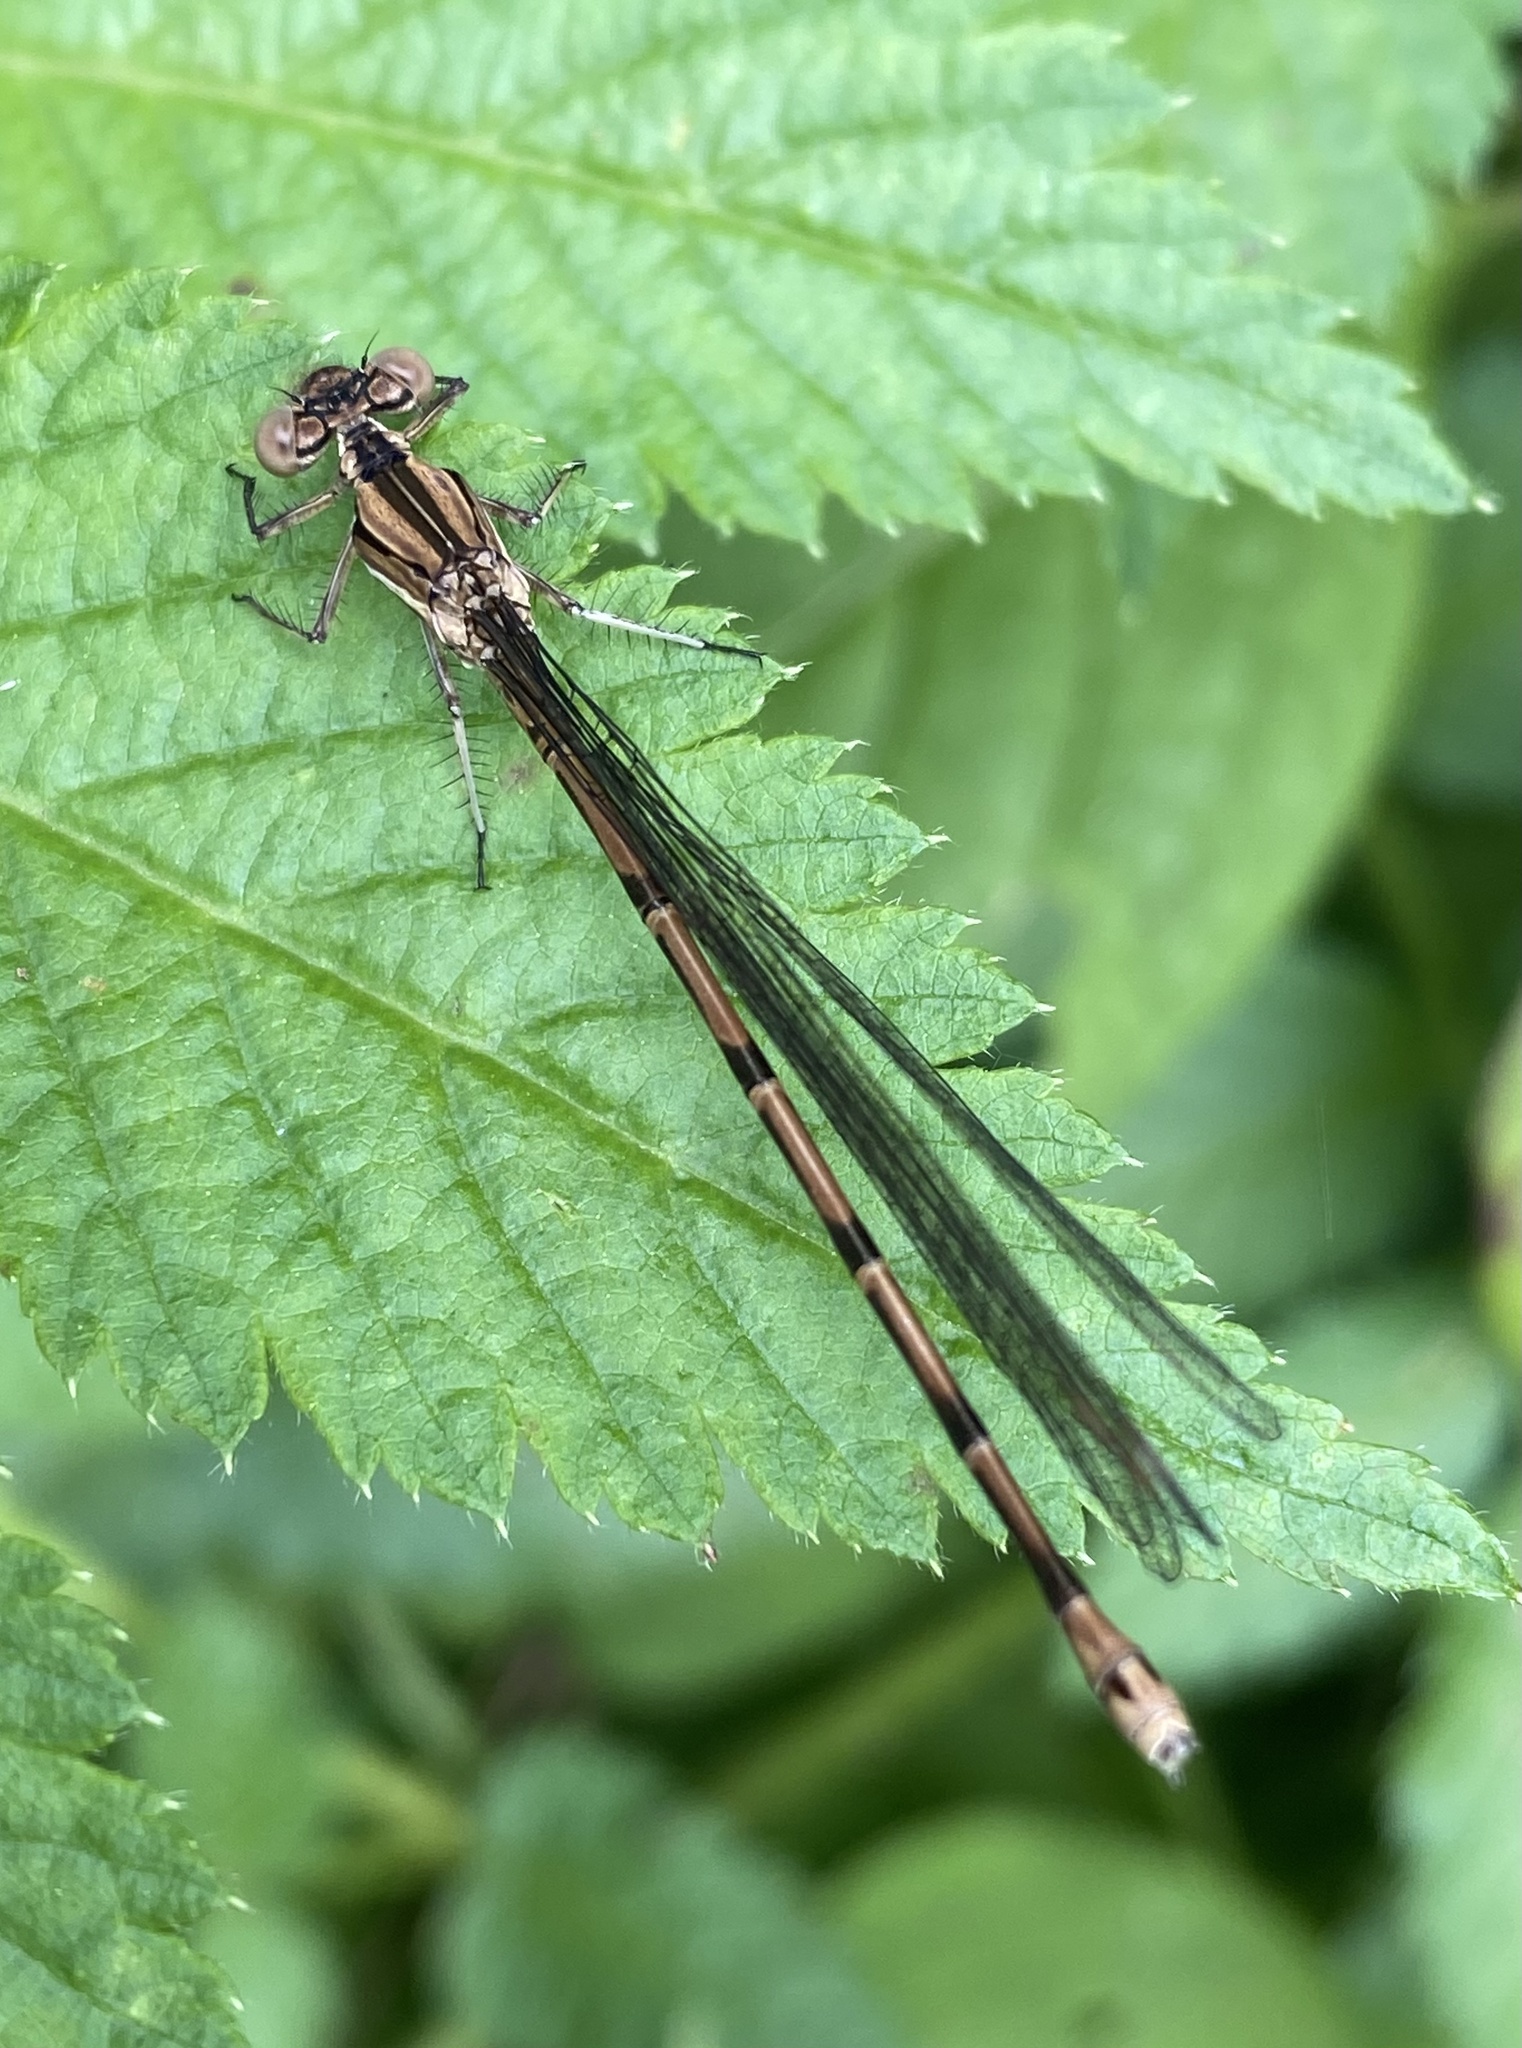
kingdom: Animalia
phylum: Arthropoda
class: Insecta
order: Odonata
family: Coenagrionidae
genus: Argia
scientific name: Argia elongata
